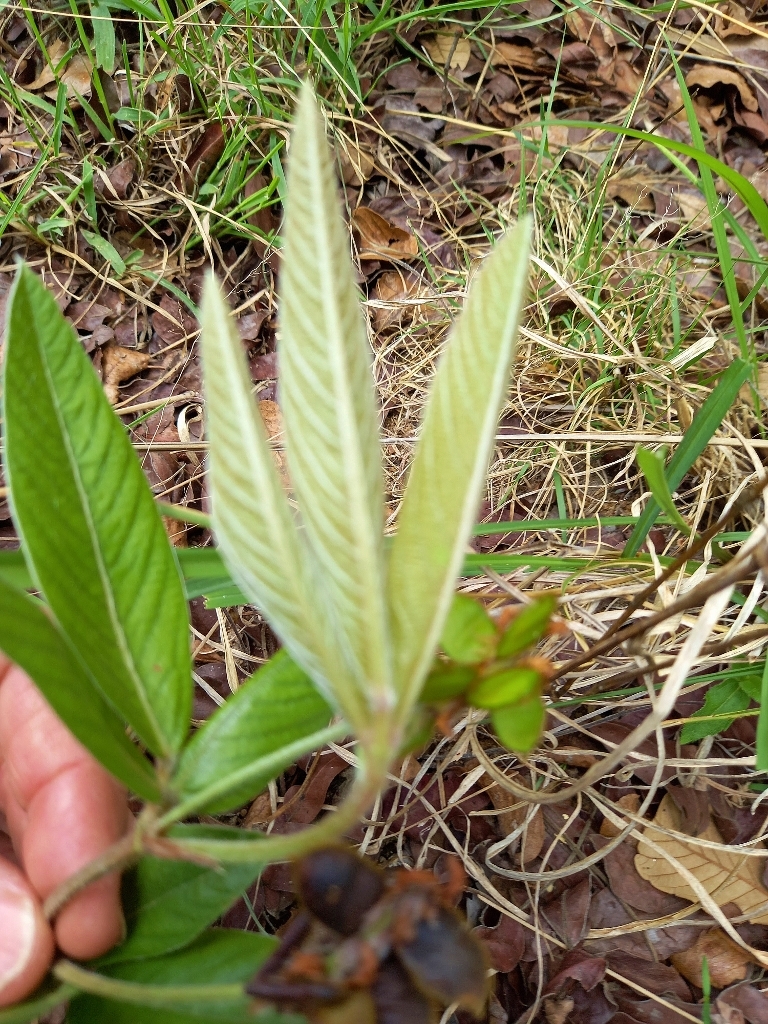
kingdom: Plantae
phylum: Tracheophyta
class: Magnoliopsida
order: Fabales
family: Fabaceae
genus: Eriosema
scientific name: Eriosema pauciflorum
